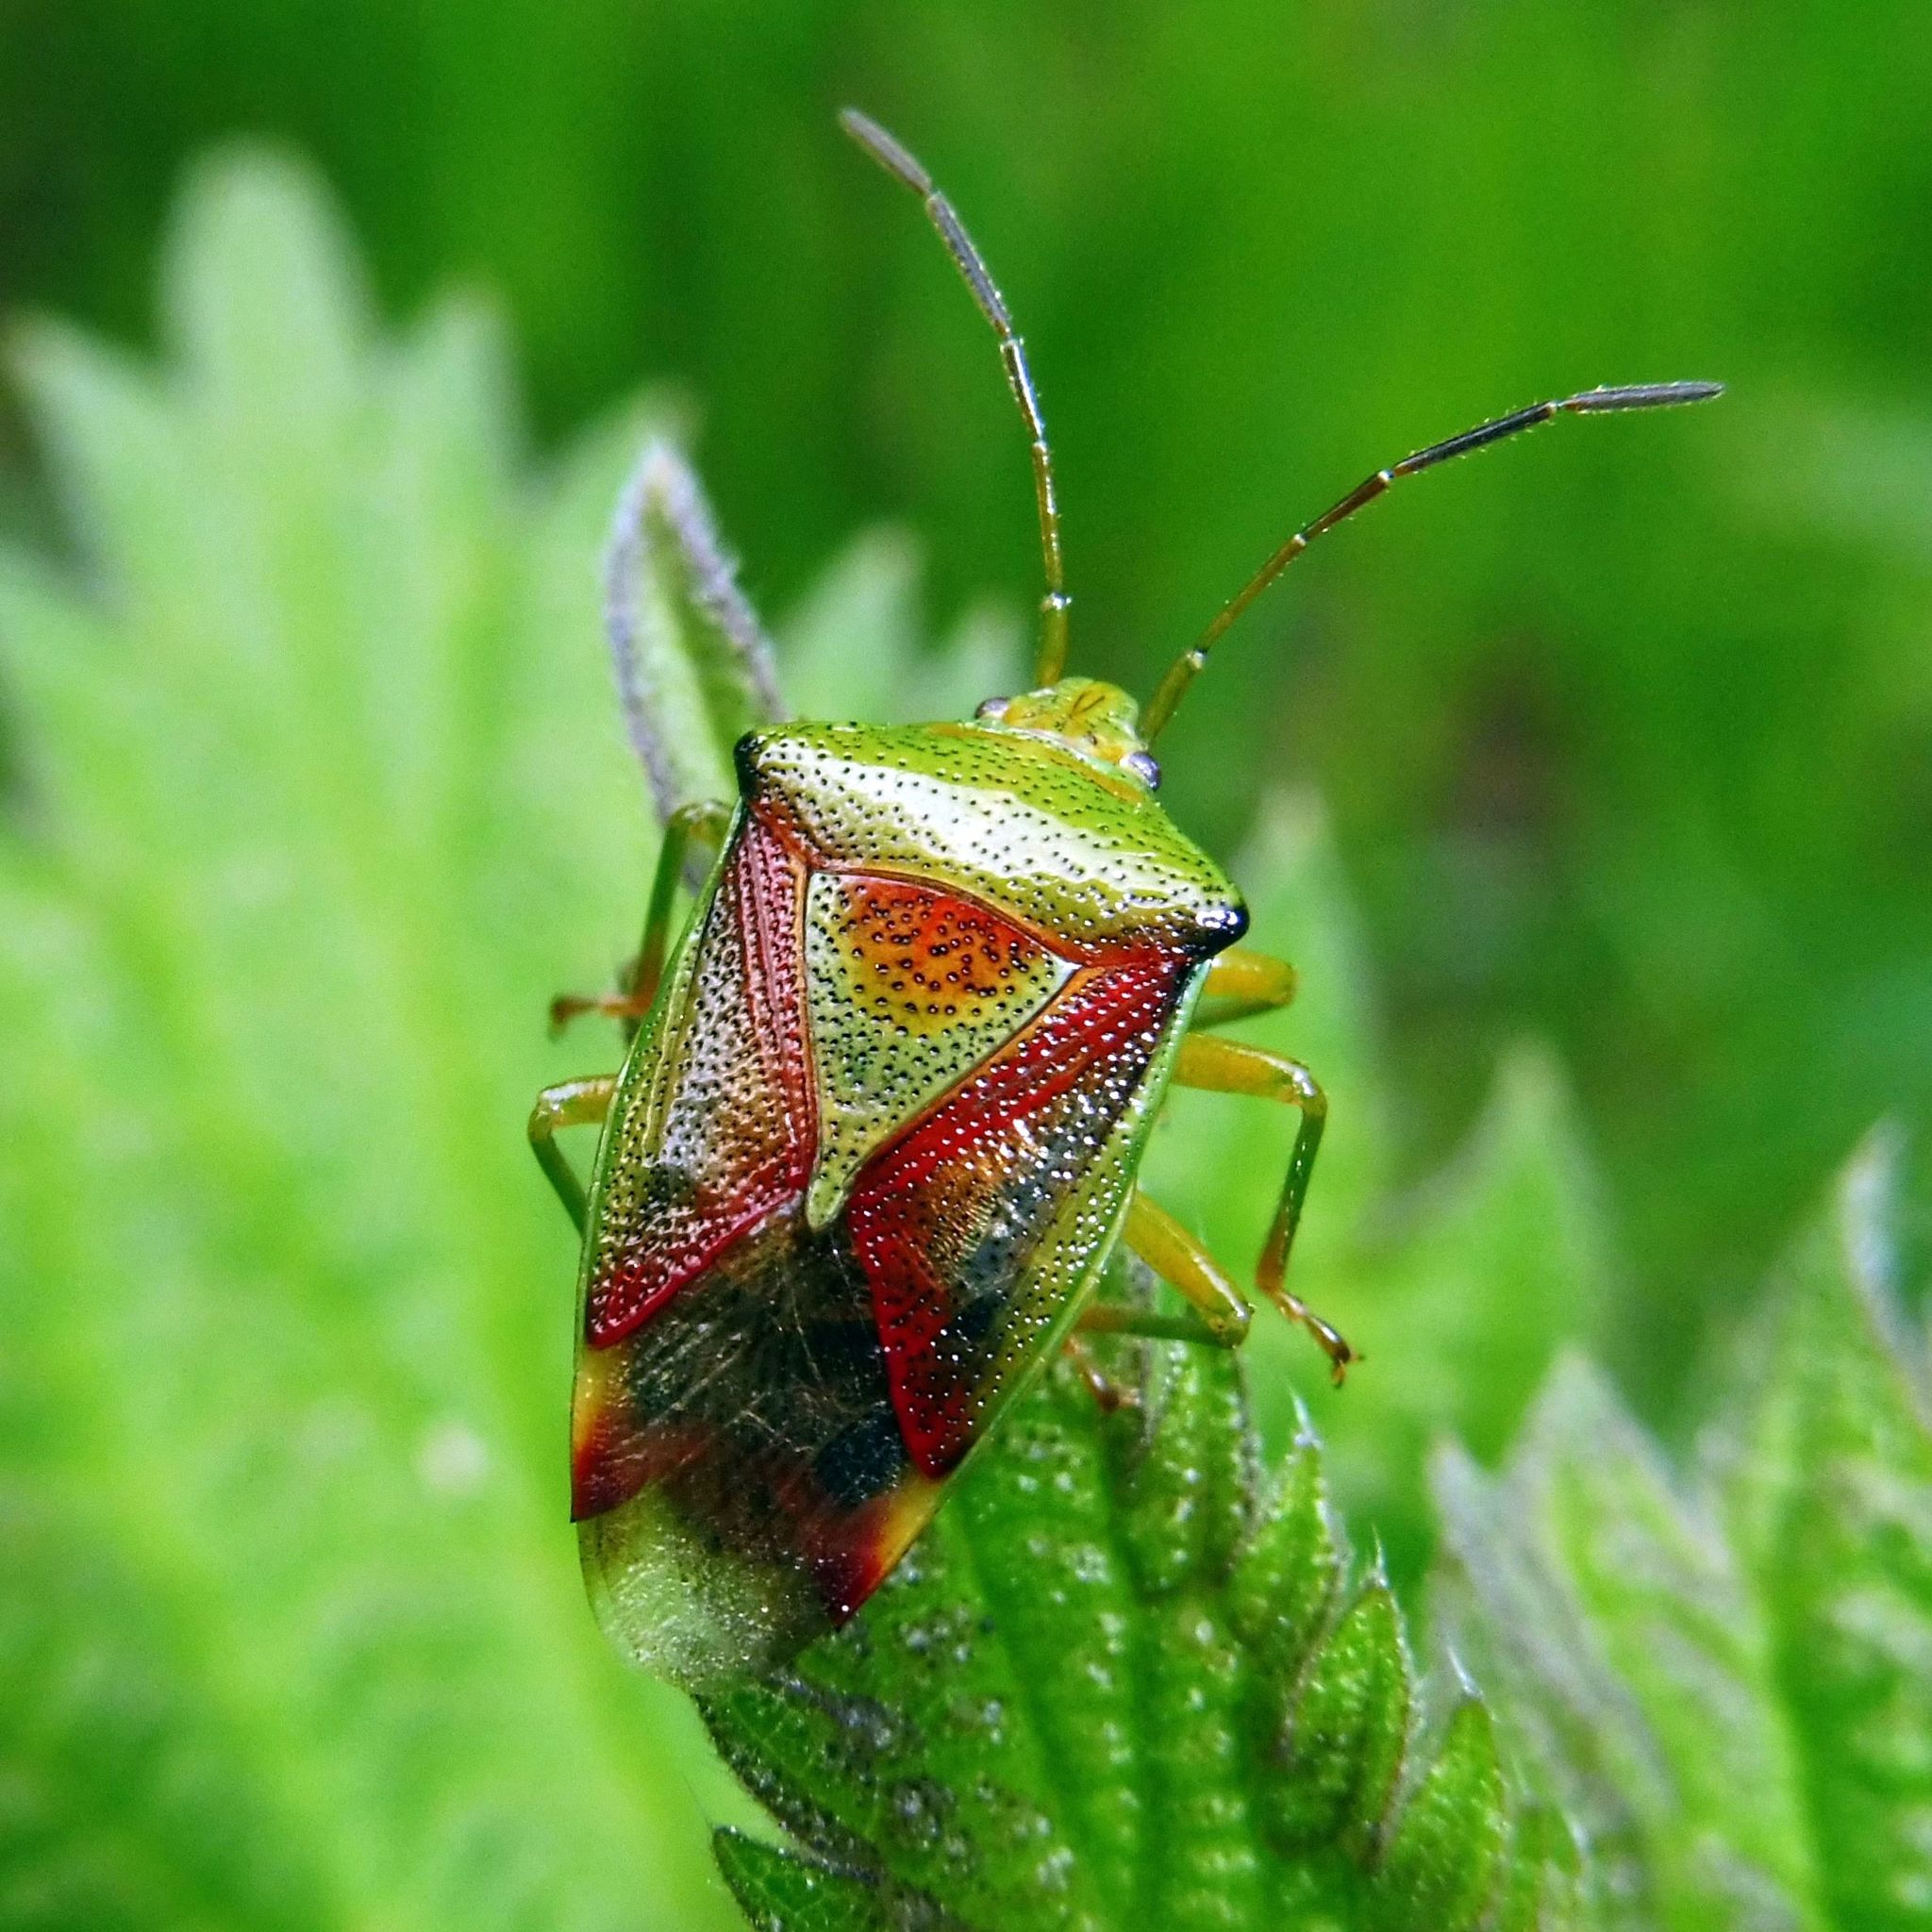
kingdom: Animalia
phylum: Arthropoda
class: Insecta
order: Hemiptera
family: Acanthosomatidae
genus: Elasmostethus
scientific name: Elasmostethus interstinctus
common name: Birch shieldbug
